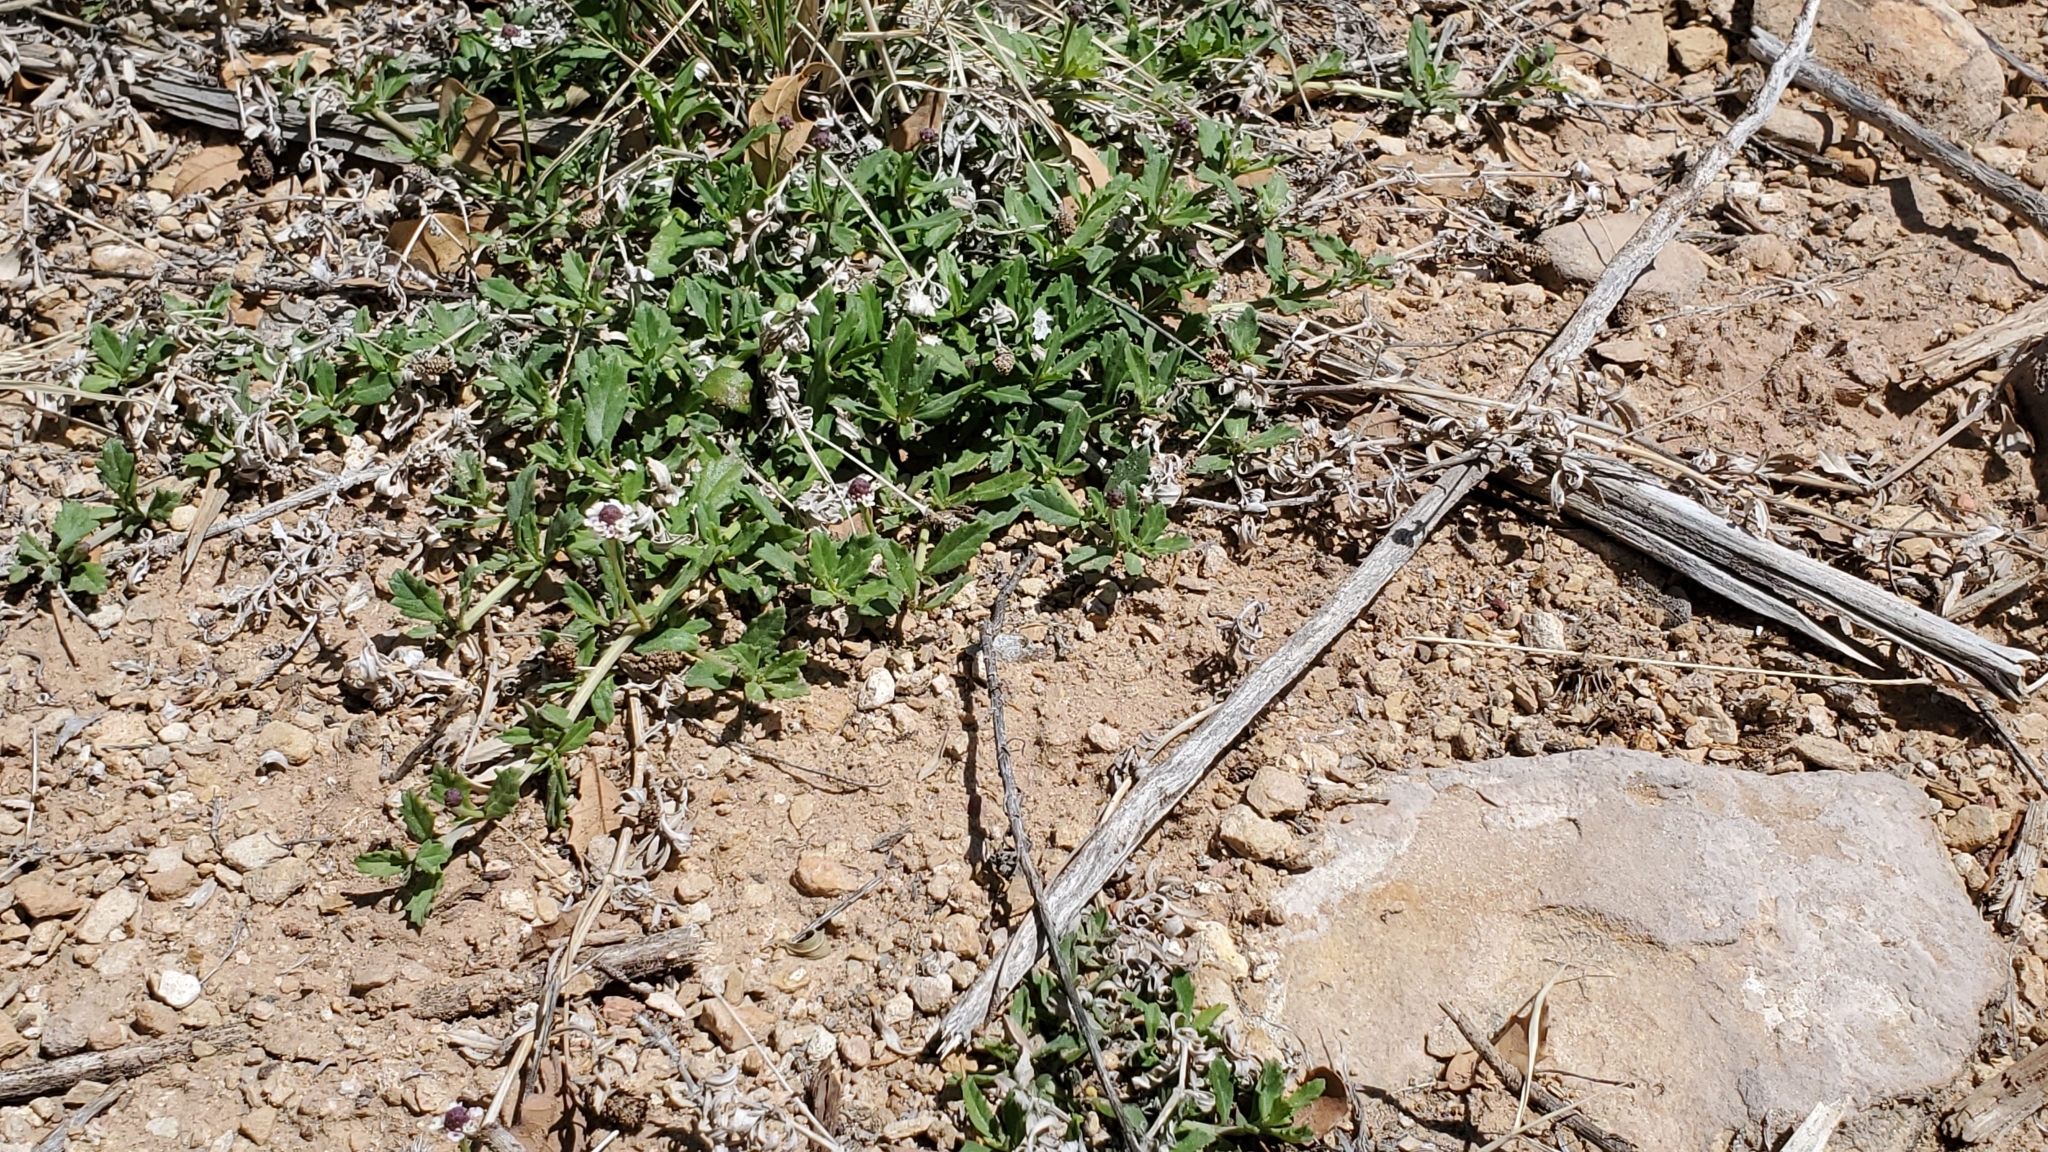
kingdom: Plantae
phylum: Tracheophyta
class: Magnoliopsida
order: Lamiales
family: Verbenaceae
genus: Phyla
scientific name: Phyla nodiflora
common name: Frogfruit
